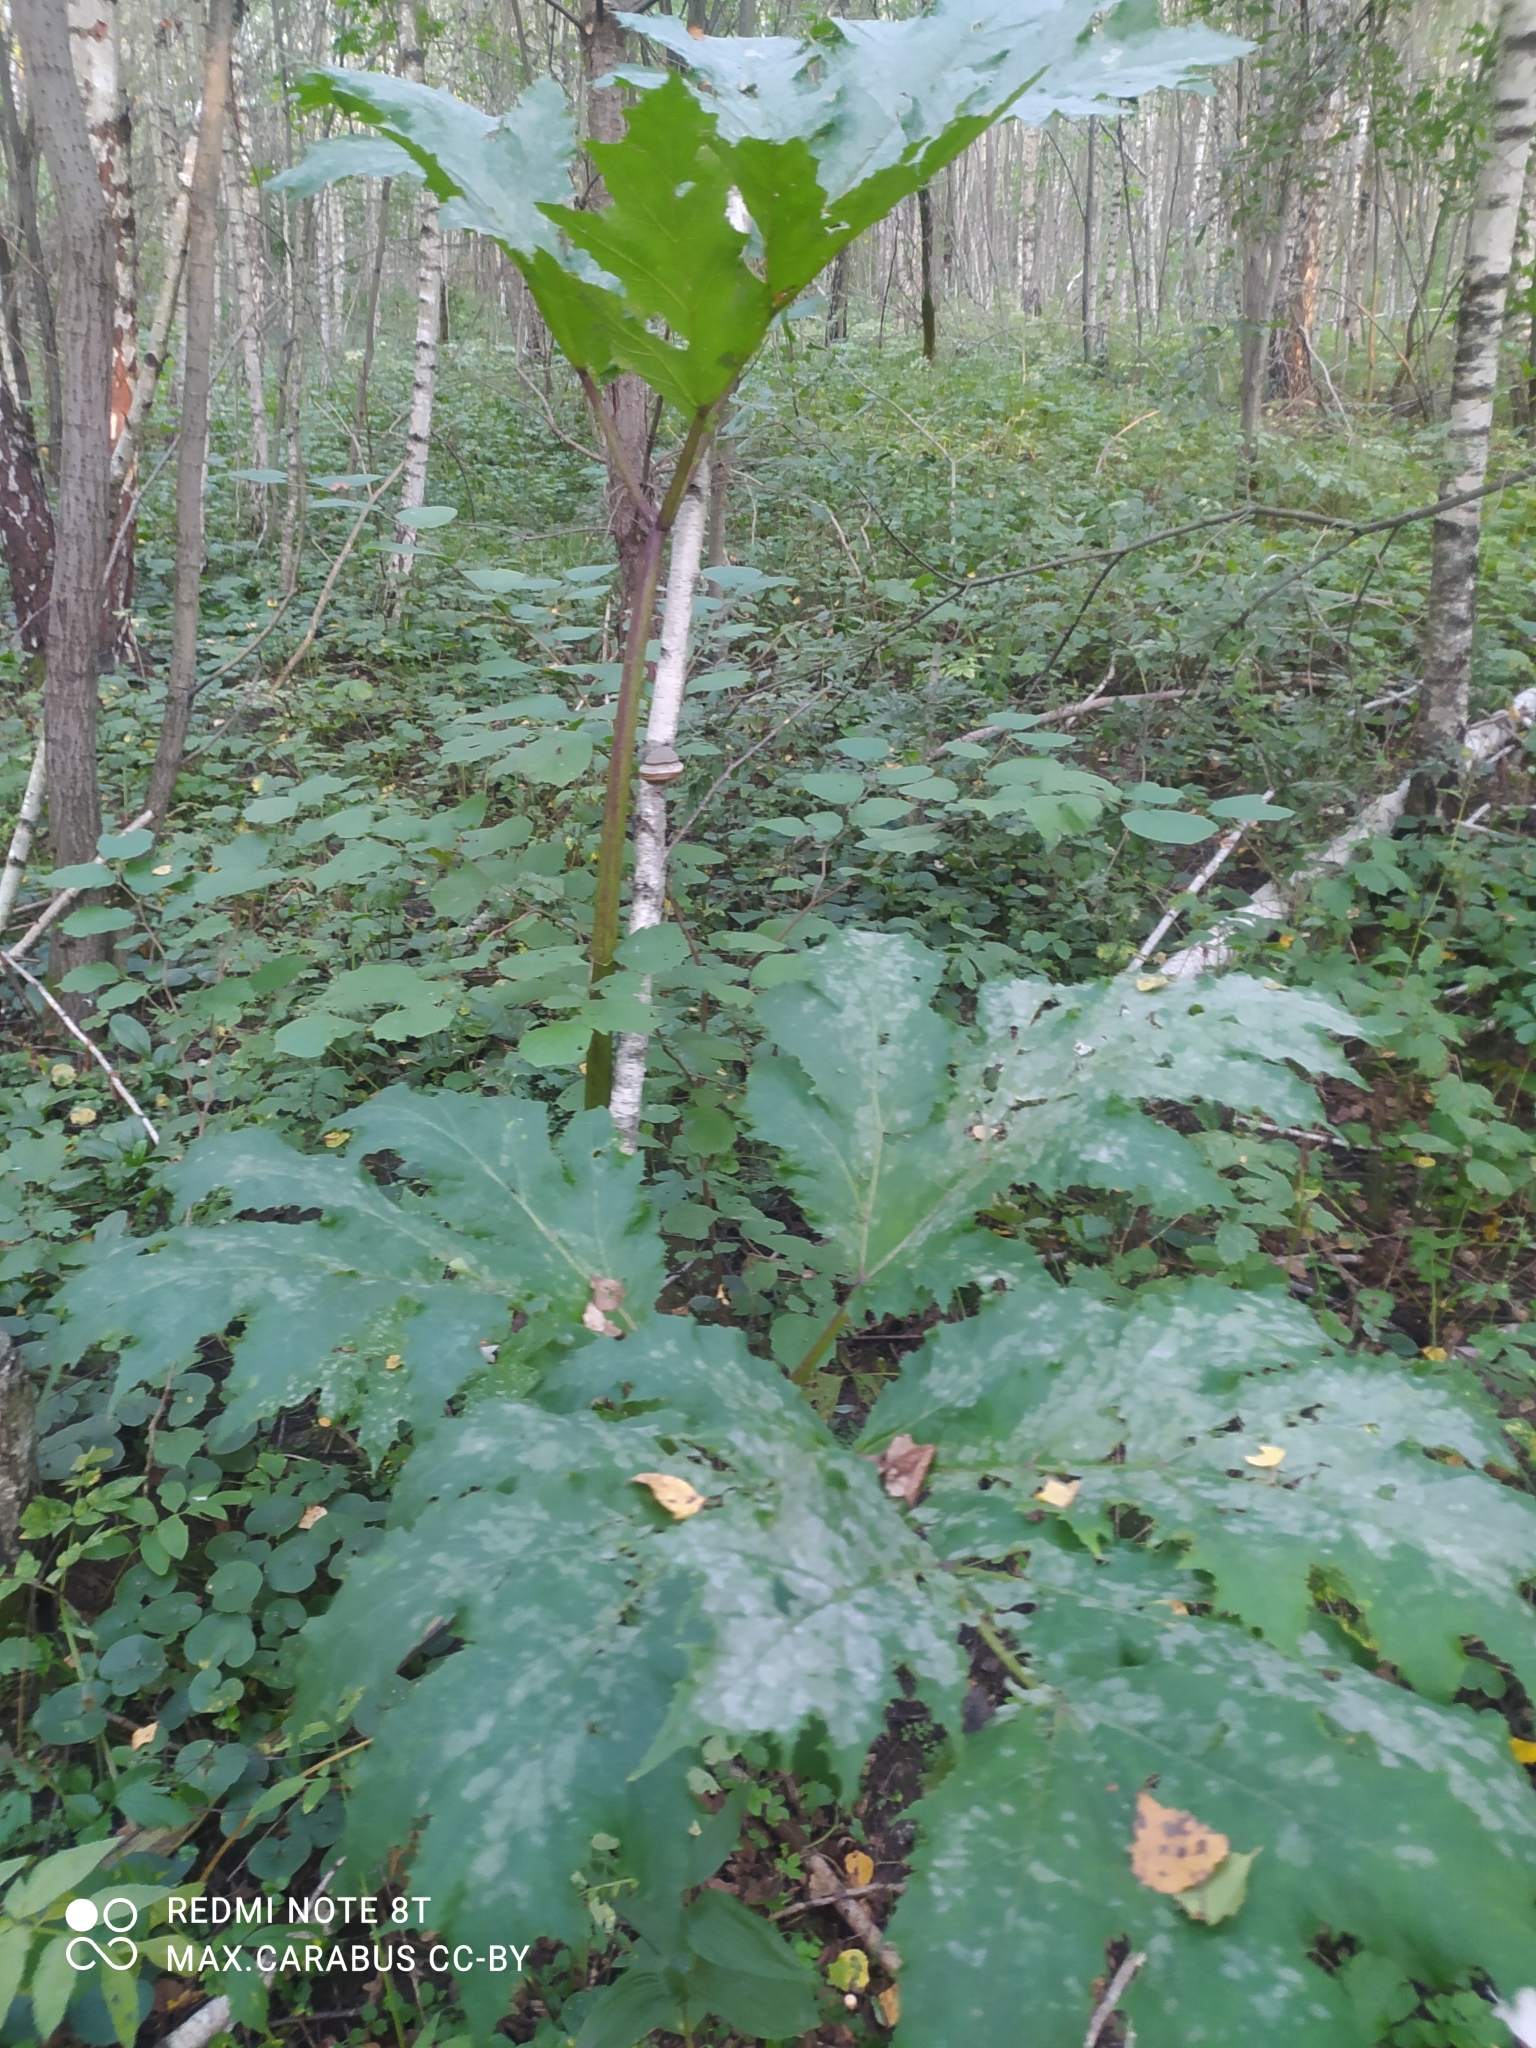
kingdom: Plantae
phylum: Tracheophyta
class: Magnoliopsida
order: Apiales
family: Apiaceae
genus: Heracleum
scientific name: Heracleum sosnowskyi
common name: Sosnowsky's hogweed
